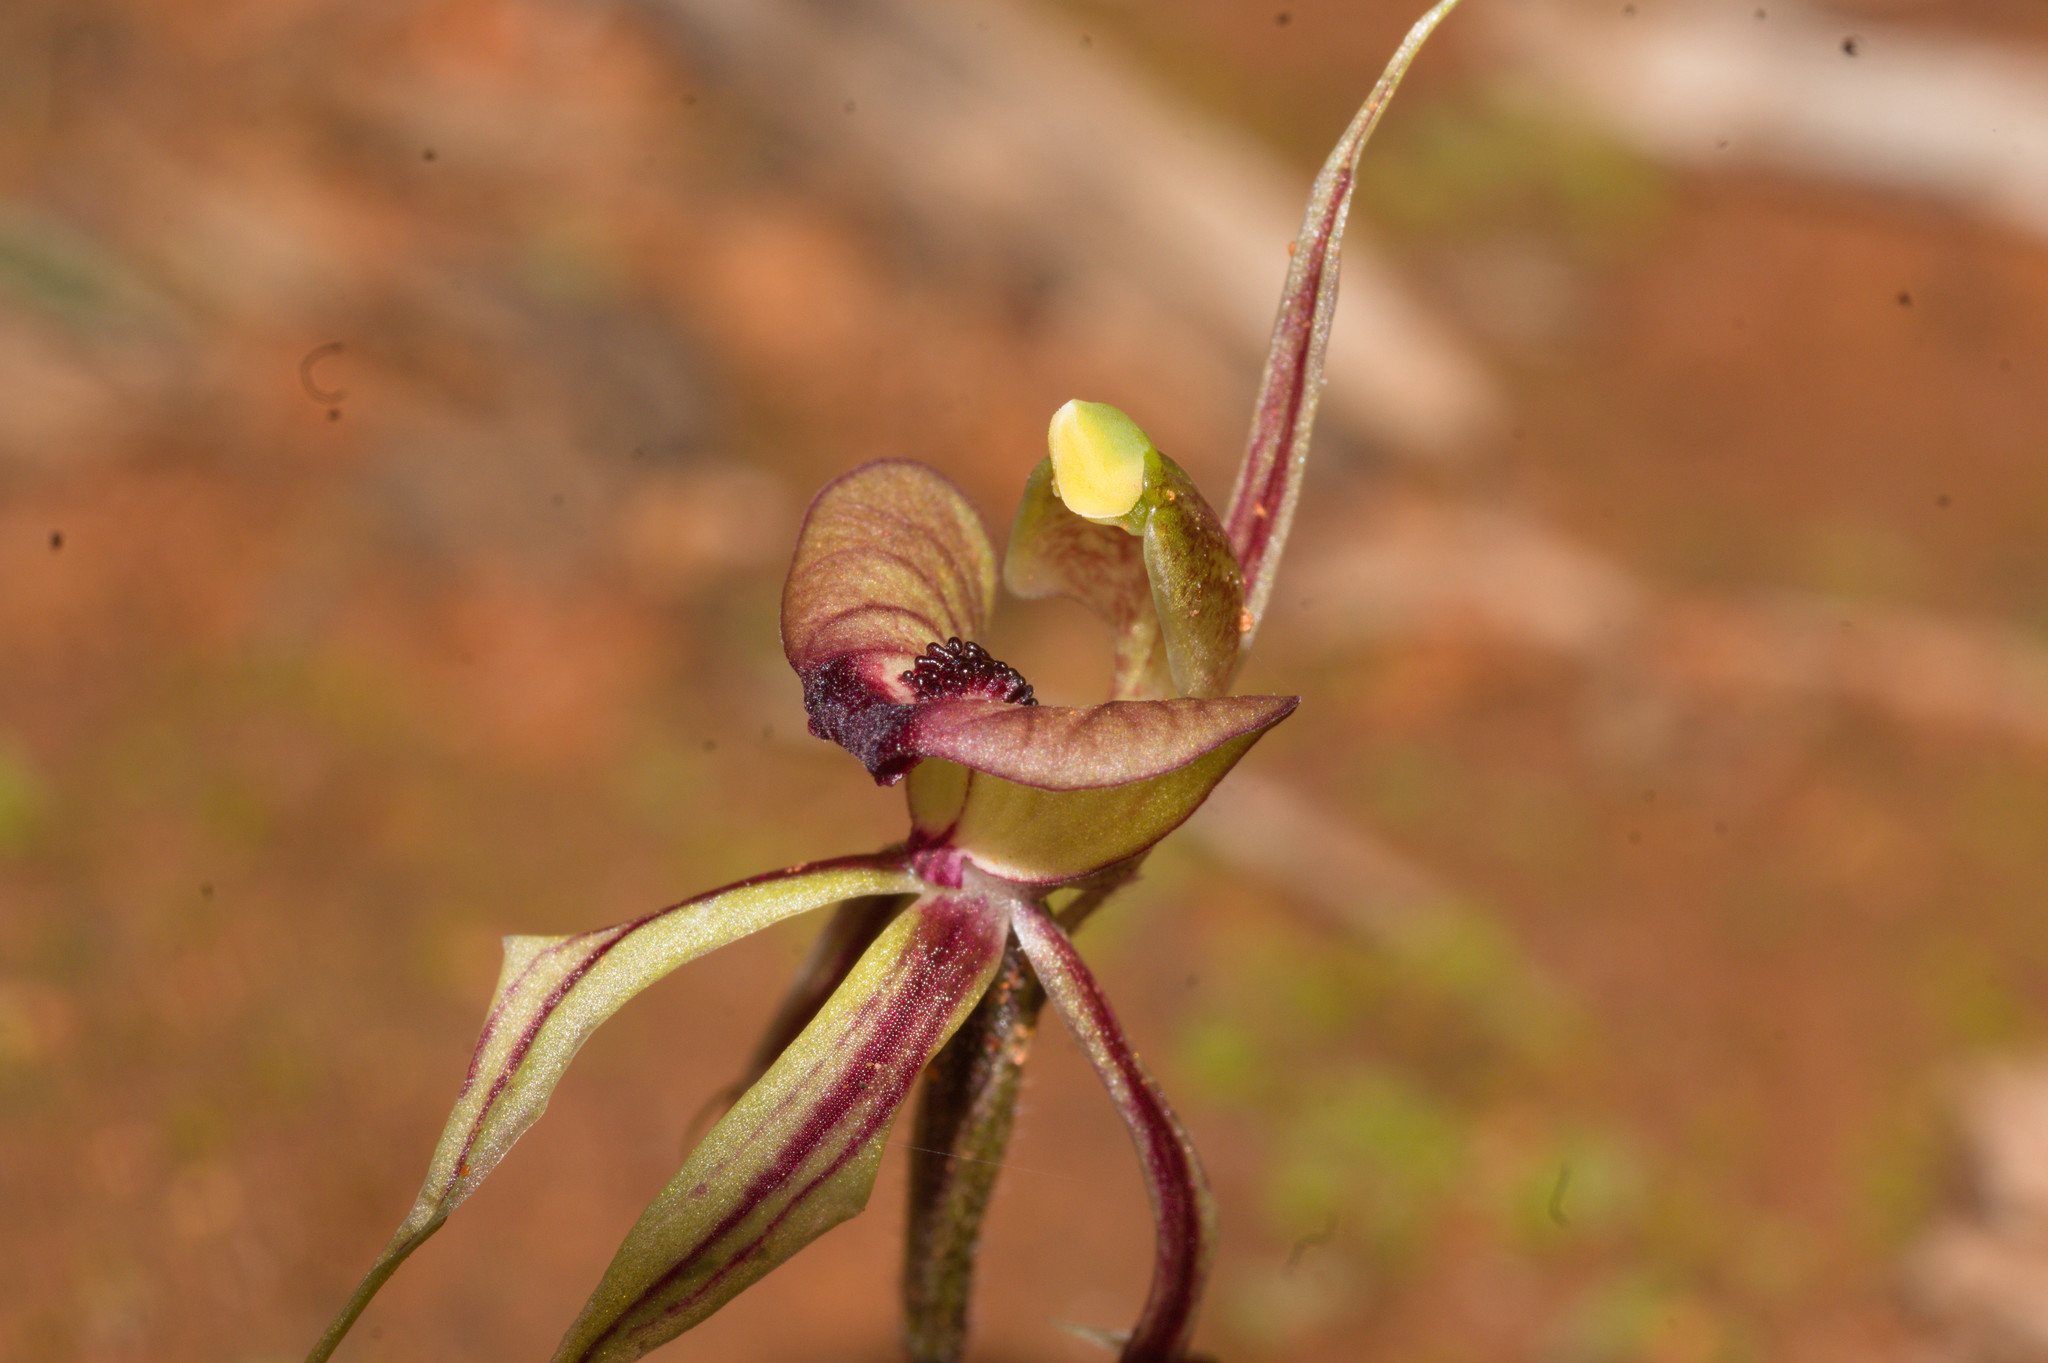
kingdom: Plantae
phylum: Tracheophyta
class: Liliopsida
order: Asparagales
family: Orchidaceae
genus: Caladenia
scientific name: Caladenia doutchiae
